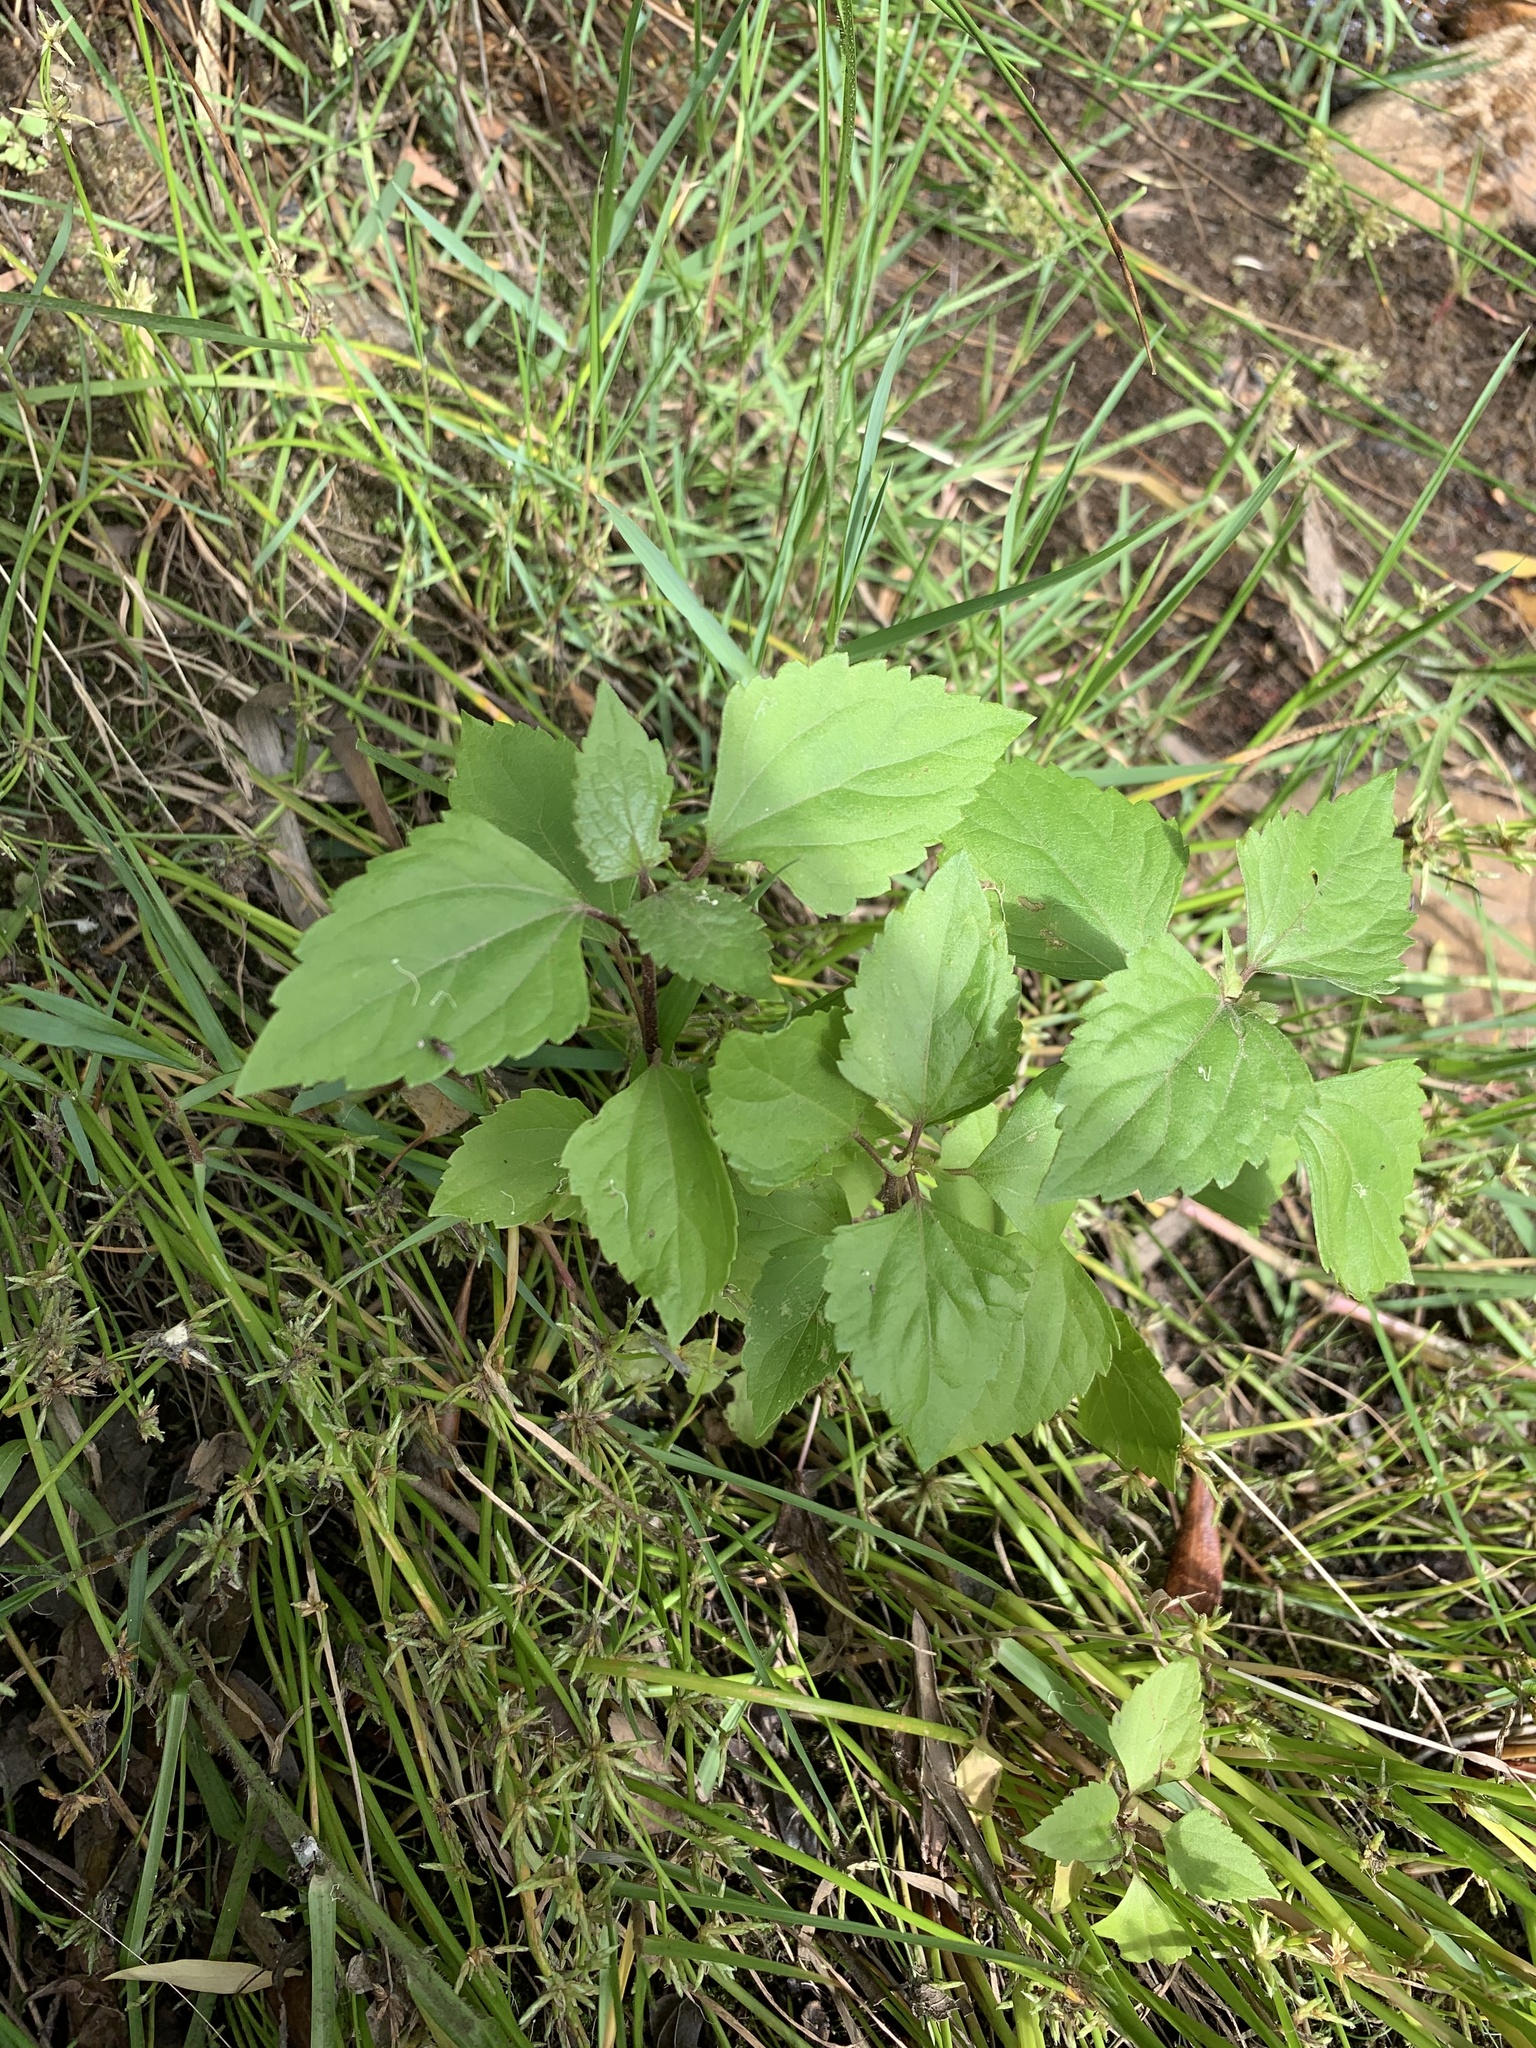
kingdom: Plantae
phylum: Tracheophyta
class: Magnoliopsida
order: Asterales
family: Asteraceae
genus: Ageratina
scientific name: Ageratina adenophora
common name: Sticky snakeroot
